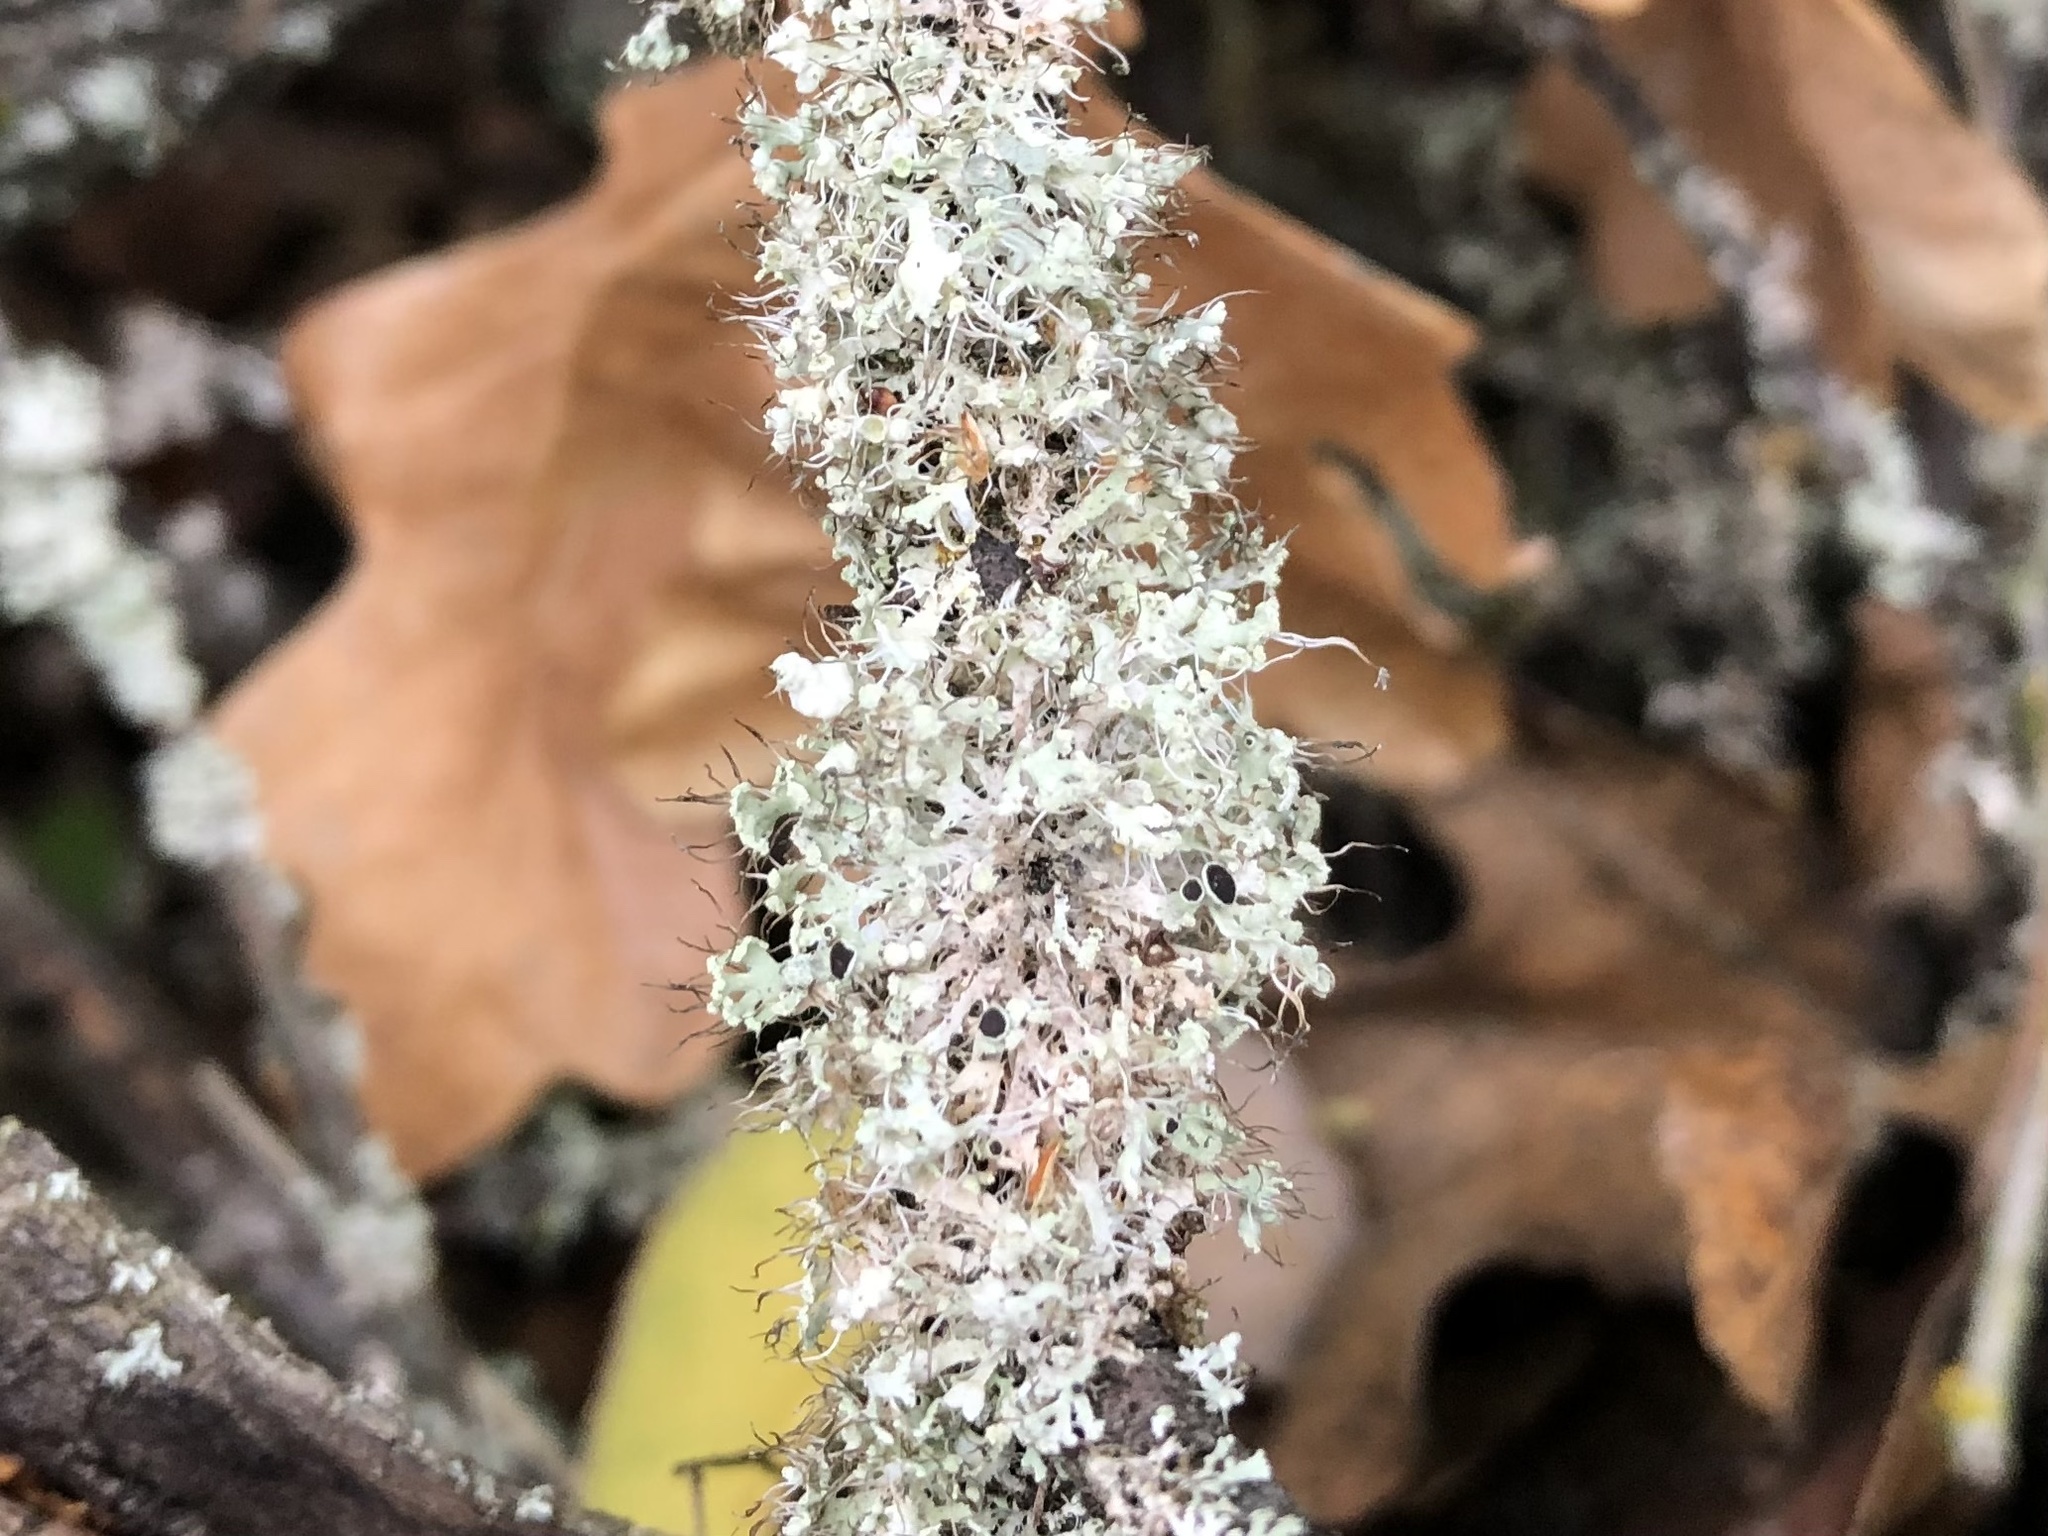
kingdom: Fungi
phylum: Ascomycota
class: Lecanoromycetes
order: Caliciales
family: Physciaceae
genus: Physcia
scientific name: Physcia tenella
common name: Fringed rosette lichen
